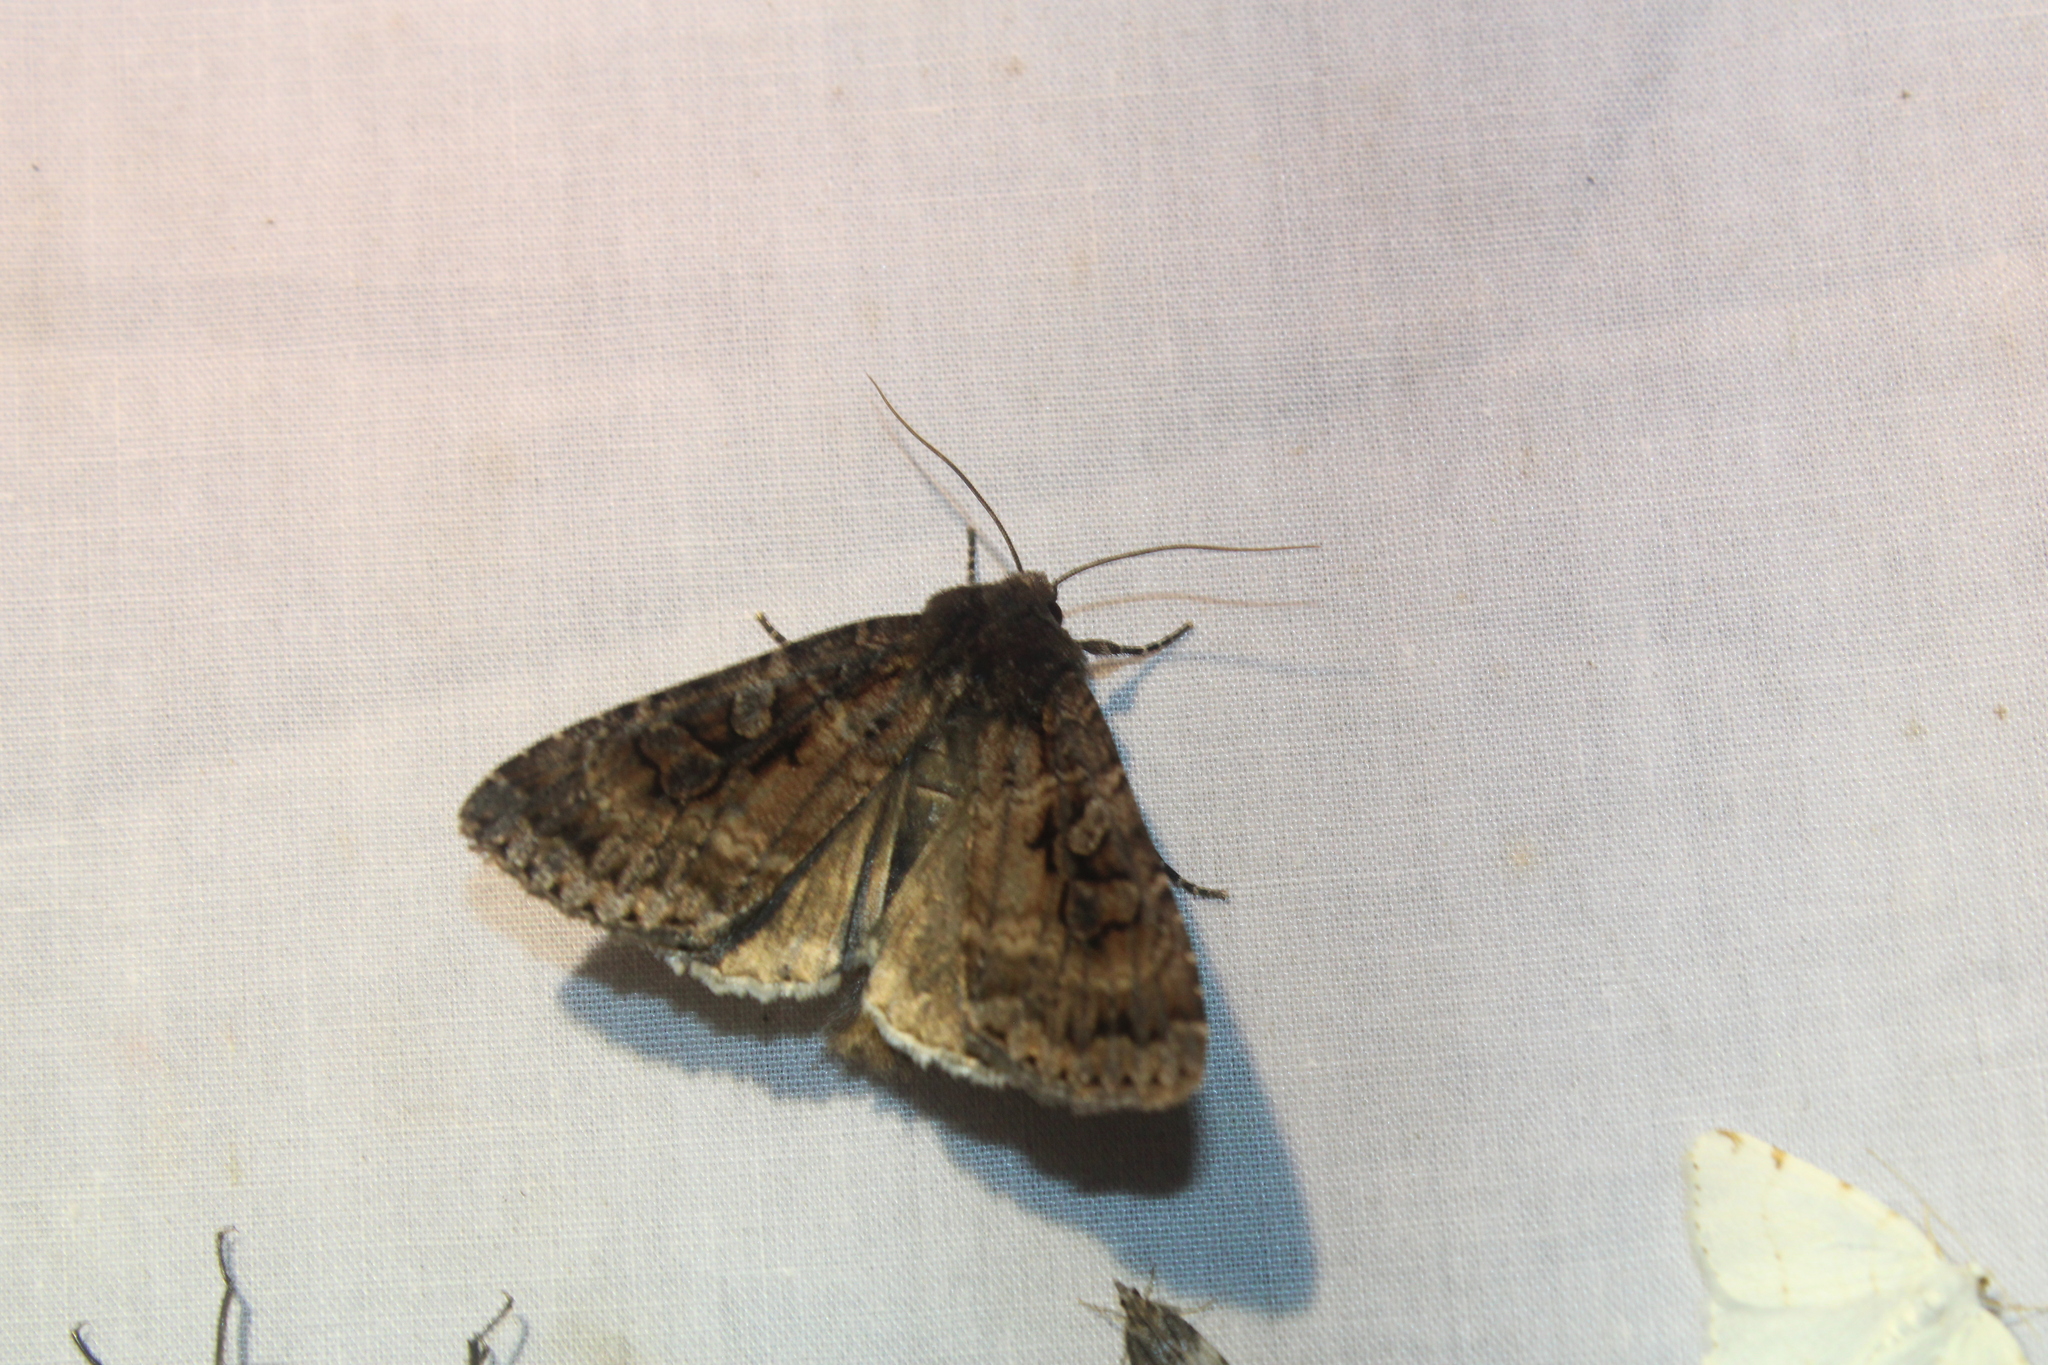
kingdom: Animalia
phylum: Arthropoda
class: Insecta
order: Lepidoptera
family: Noctuidae
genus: Eurois
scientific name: Eurois astricta
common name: Great brown dart
